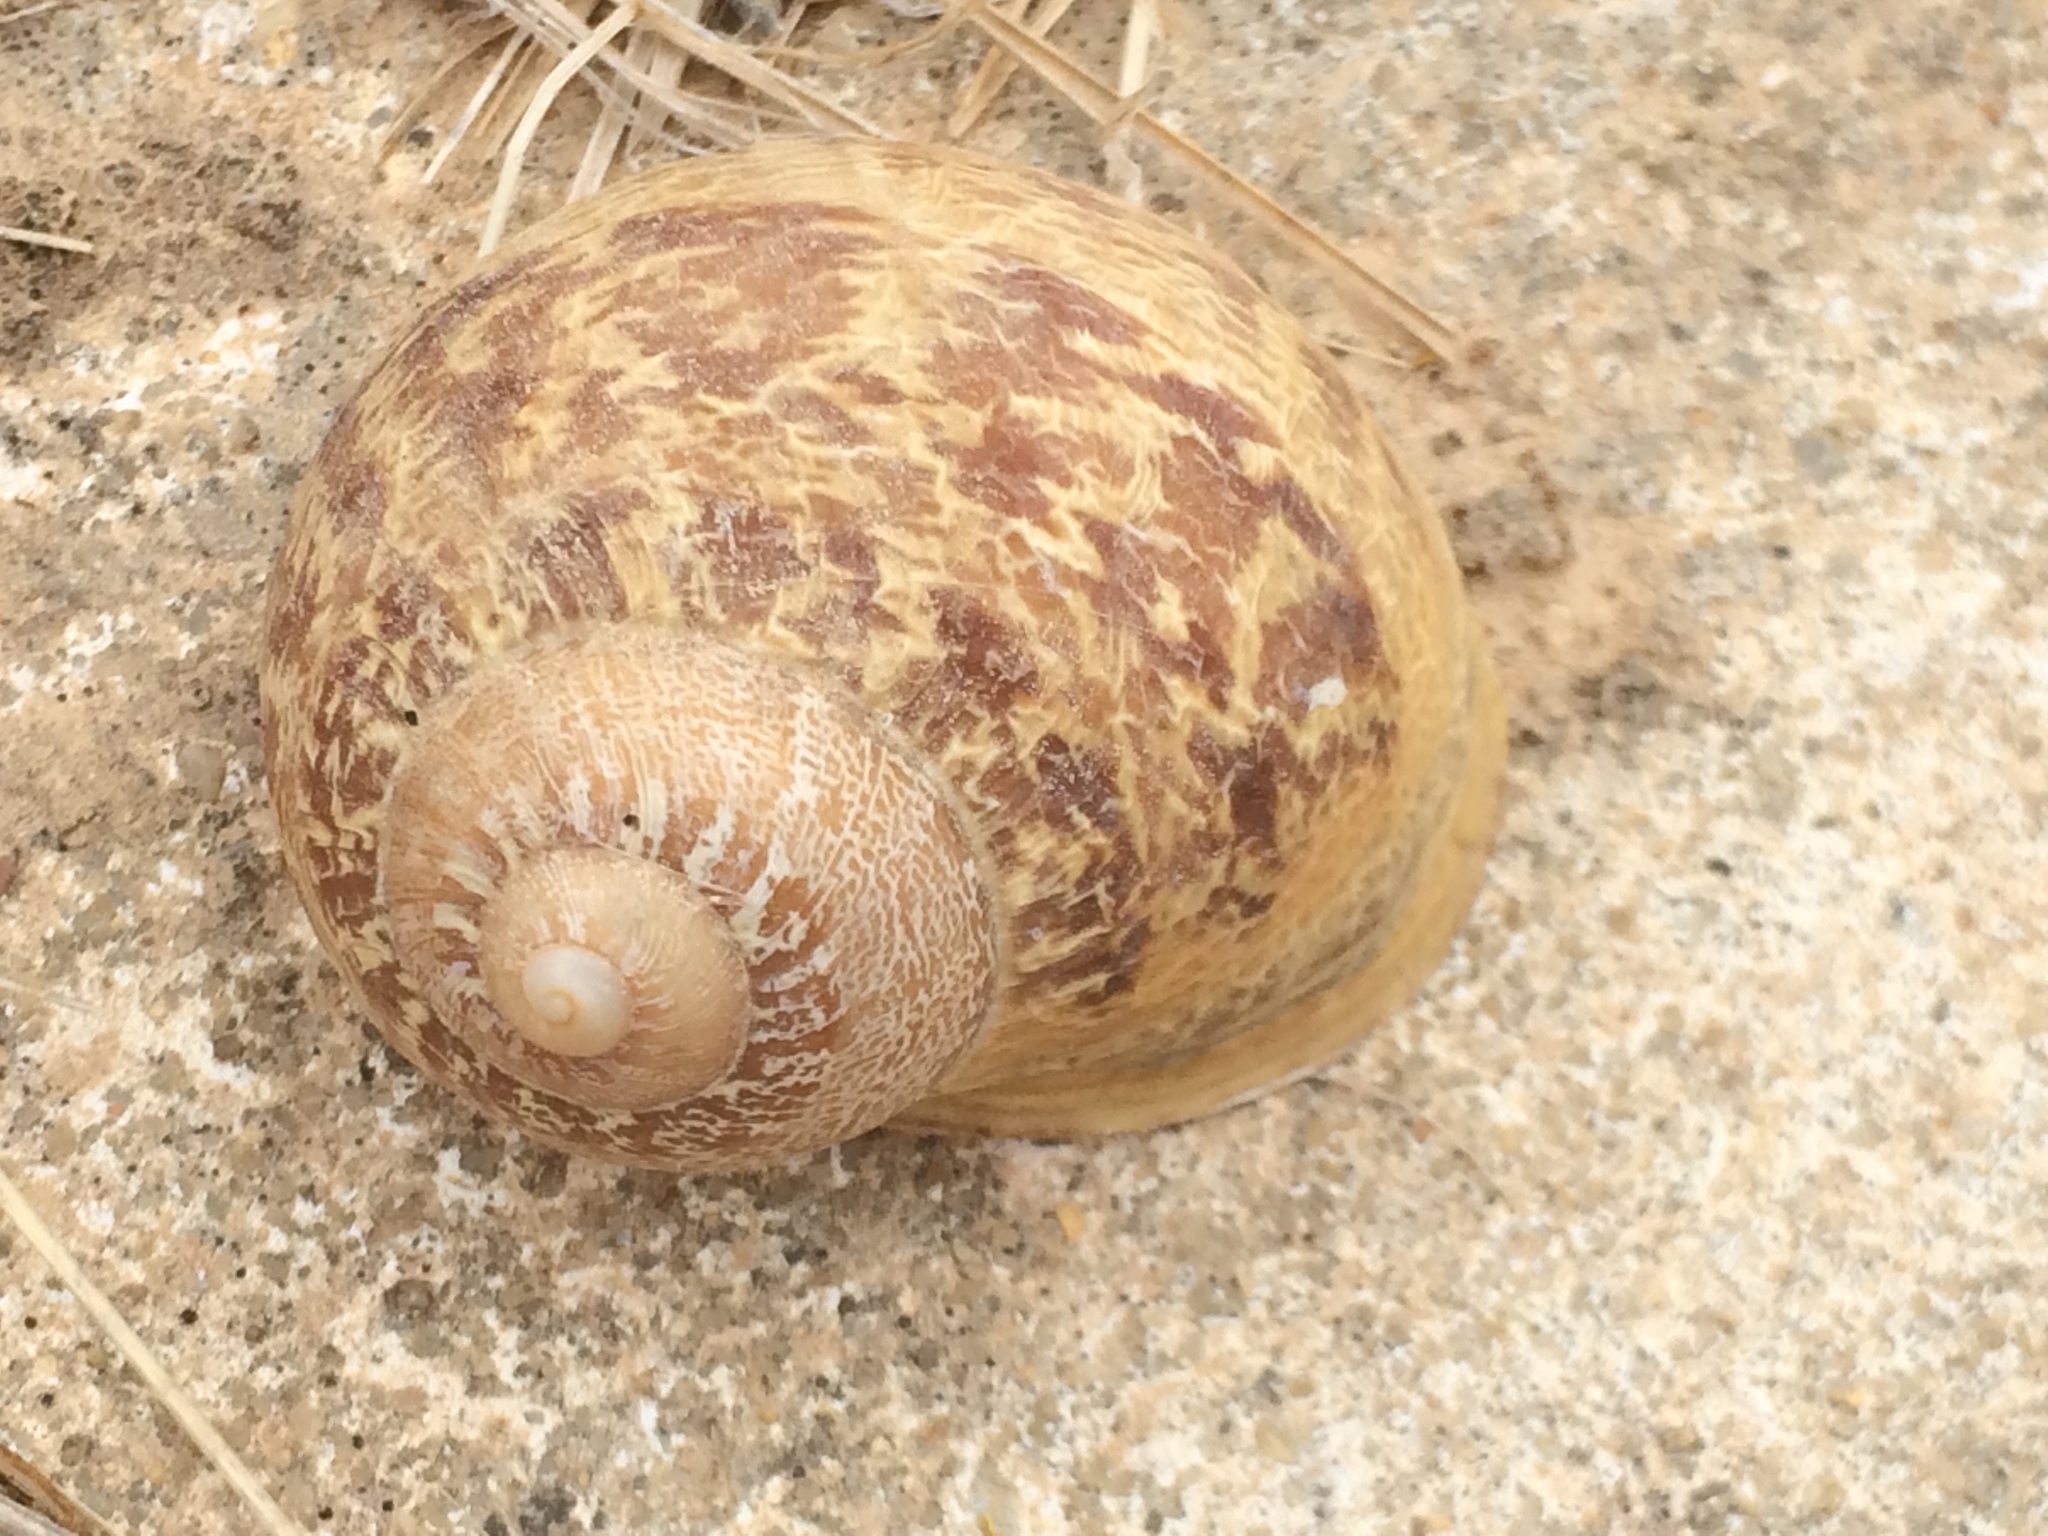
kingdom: Animalia
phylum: Mollusca
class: Gastropoda
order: Stylommatophora
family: Helicidae
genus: Cornu
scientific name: Cornu aspersum
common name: Brown garden snail
